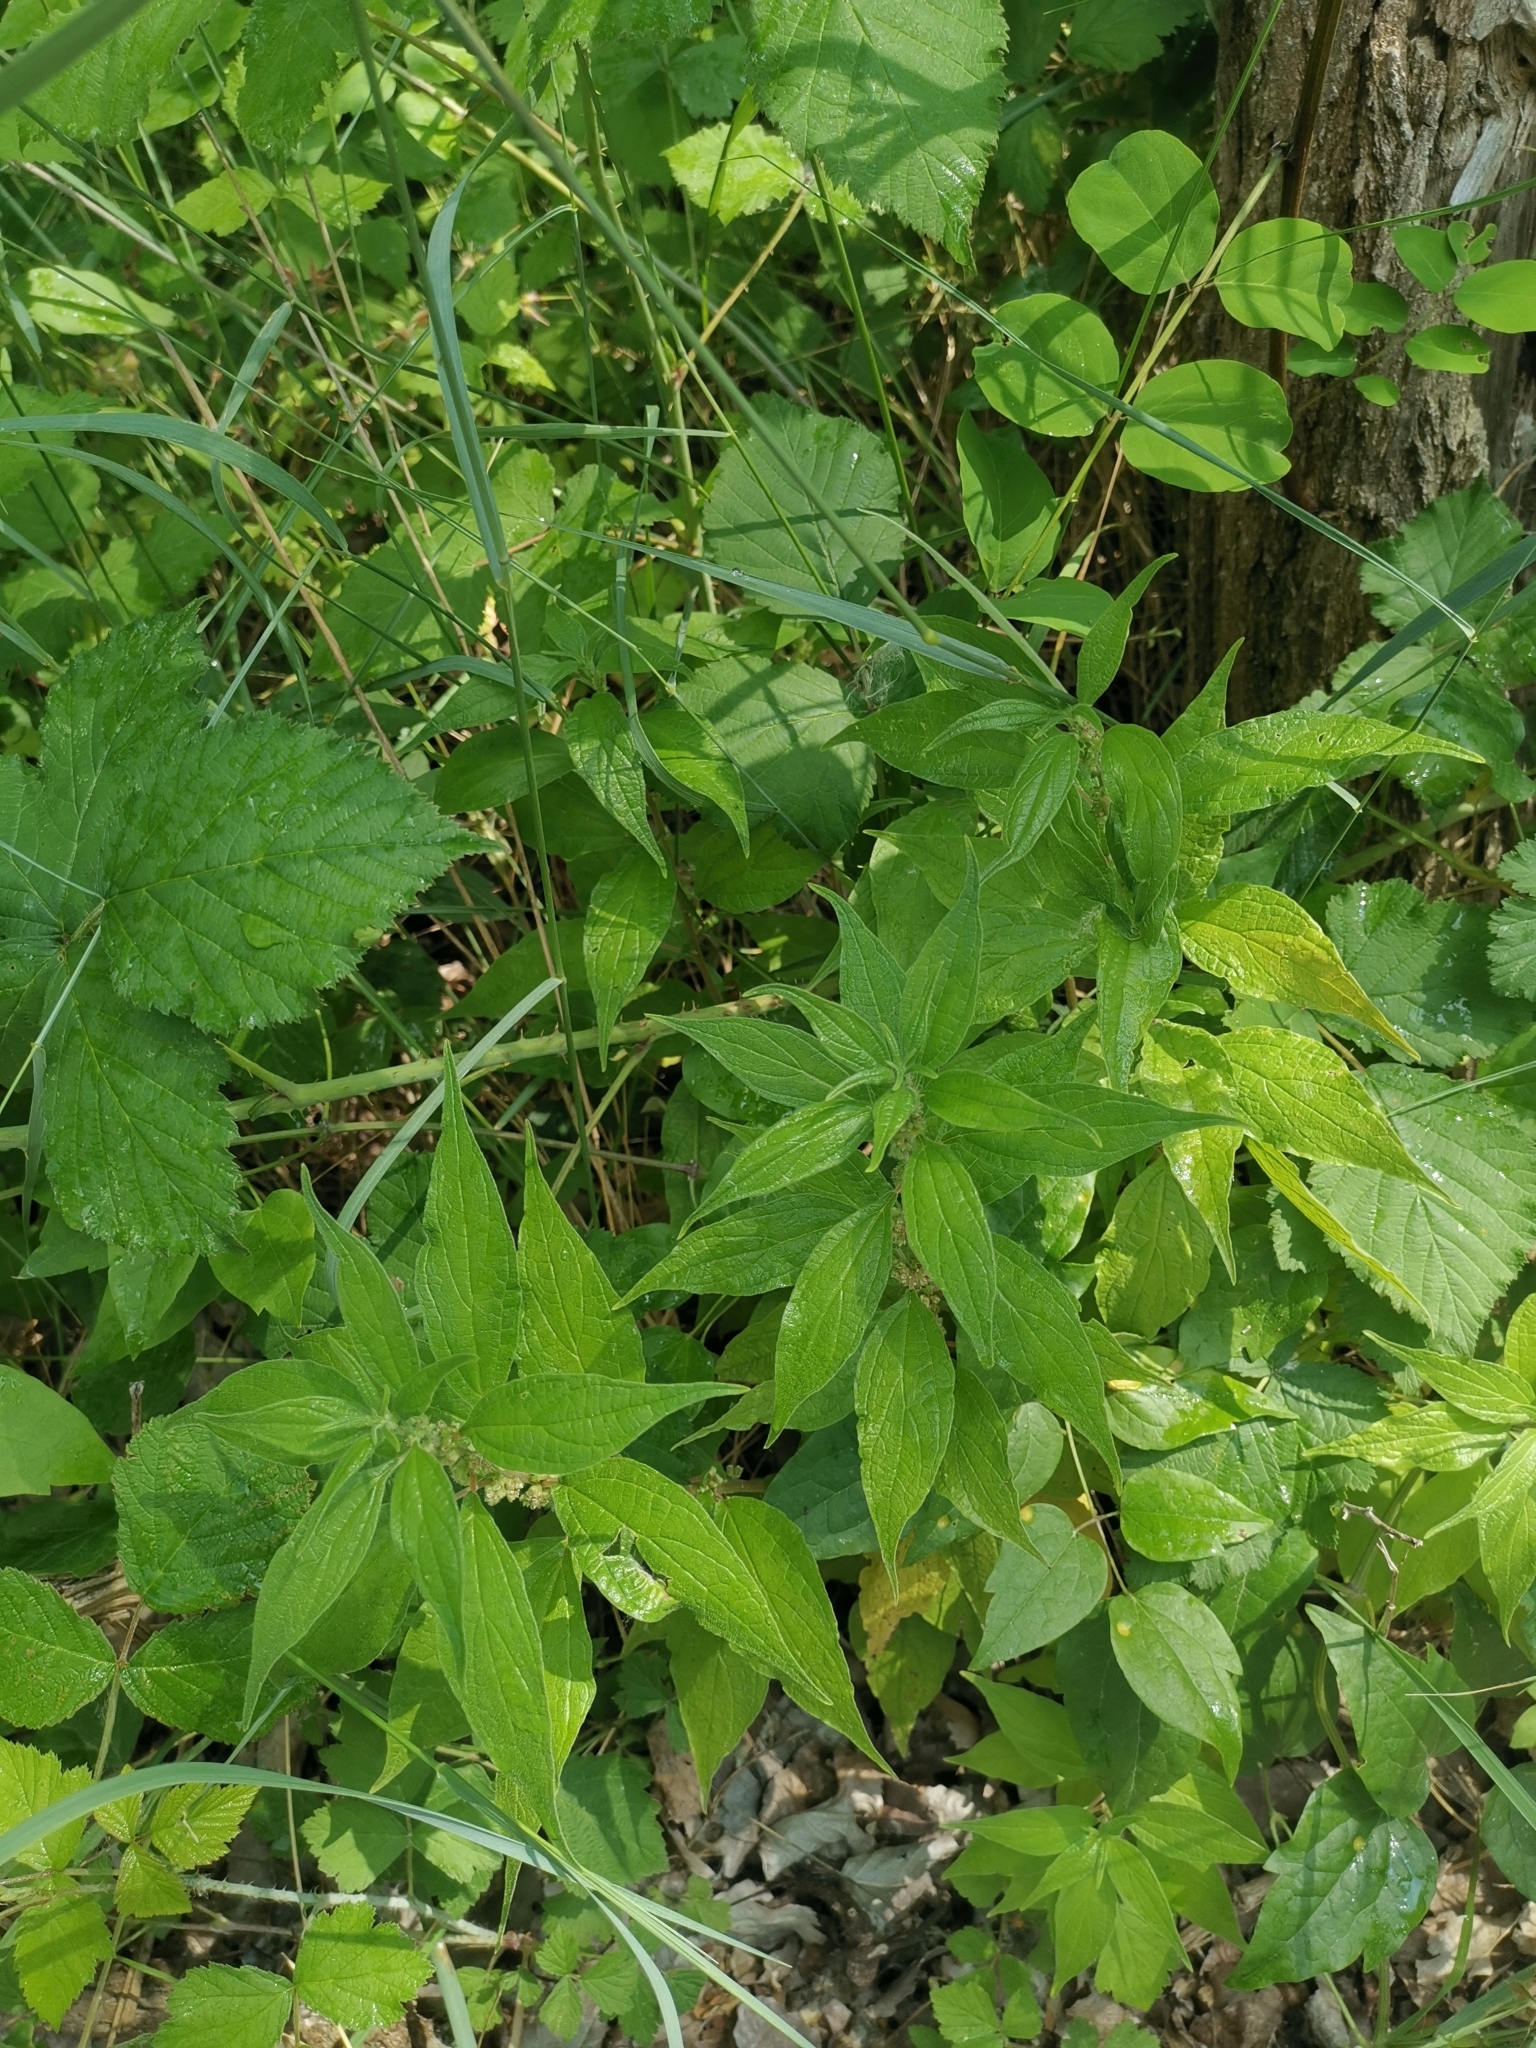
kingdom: Plantae
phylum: Tracheophyta
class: Magnoliopsida
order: Rosales
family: Urticaceae
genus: Parietaria
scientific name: Parietaria officinalis
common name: Eastern pellitory-of-the-wall
